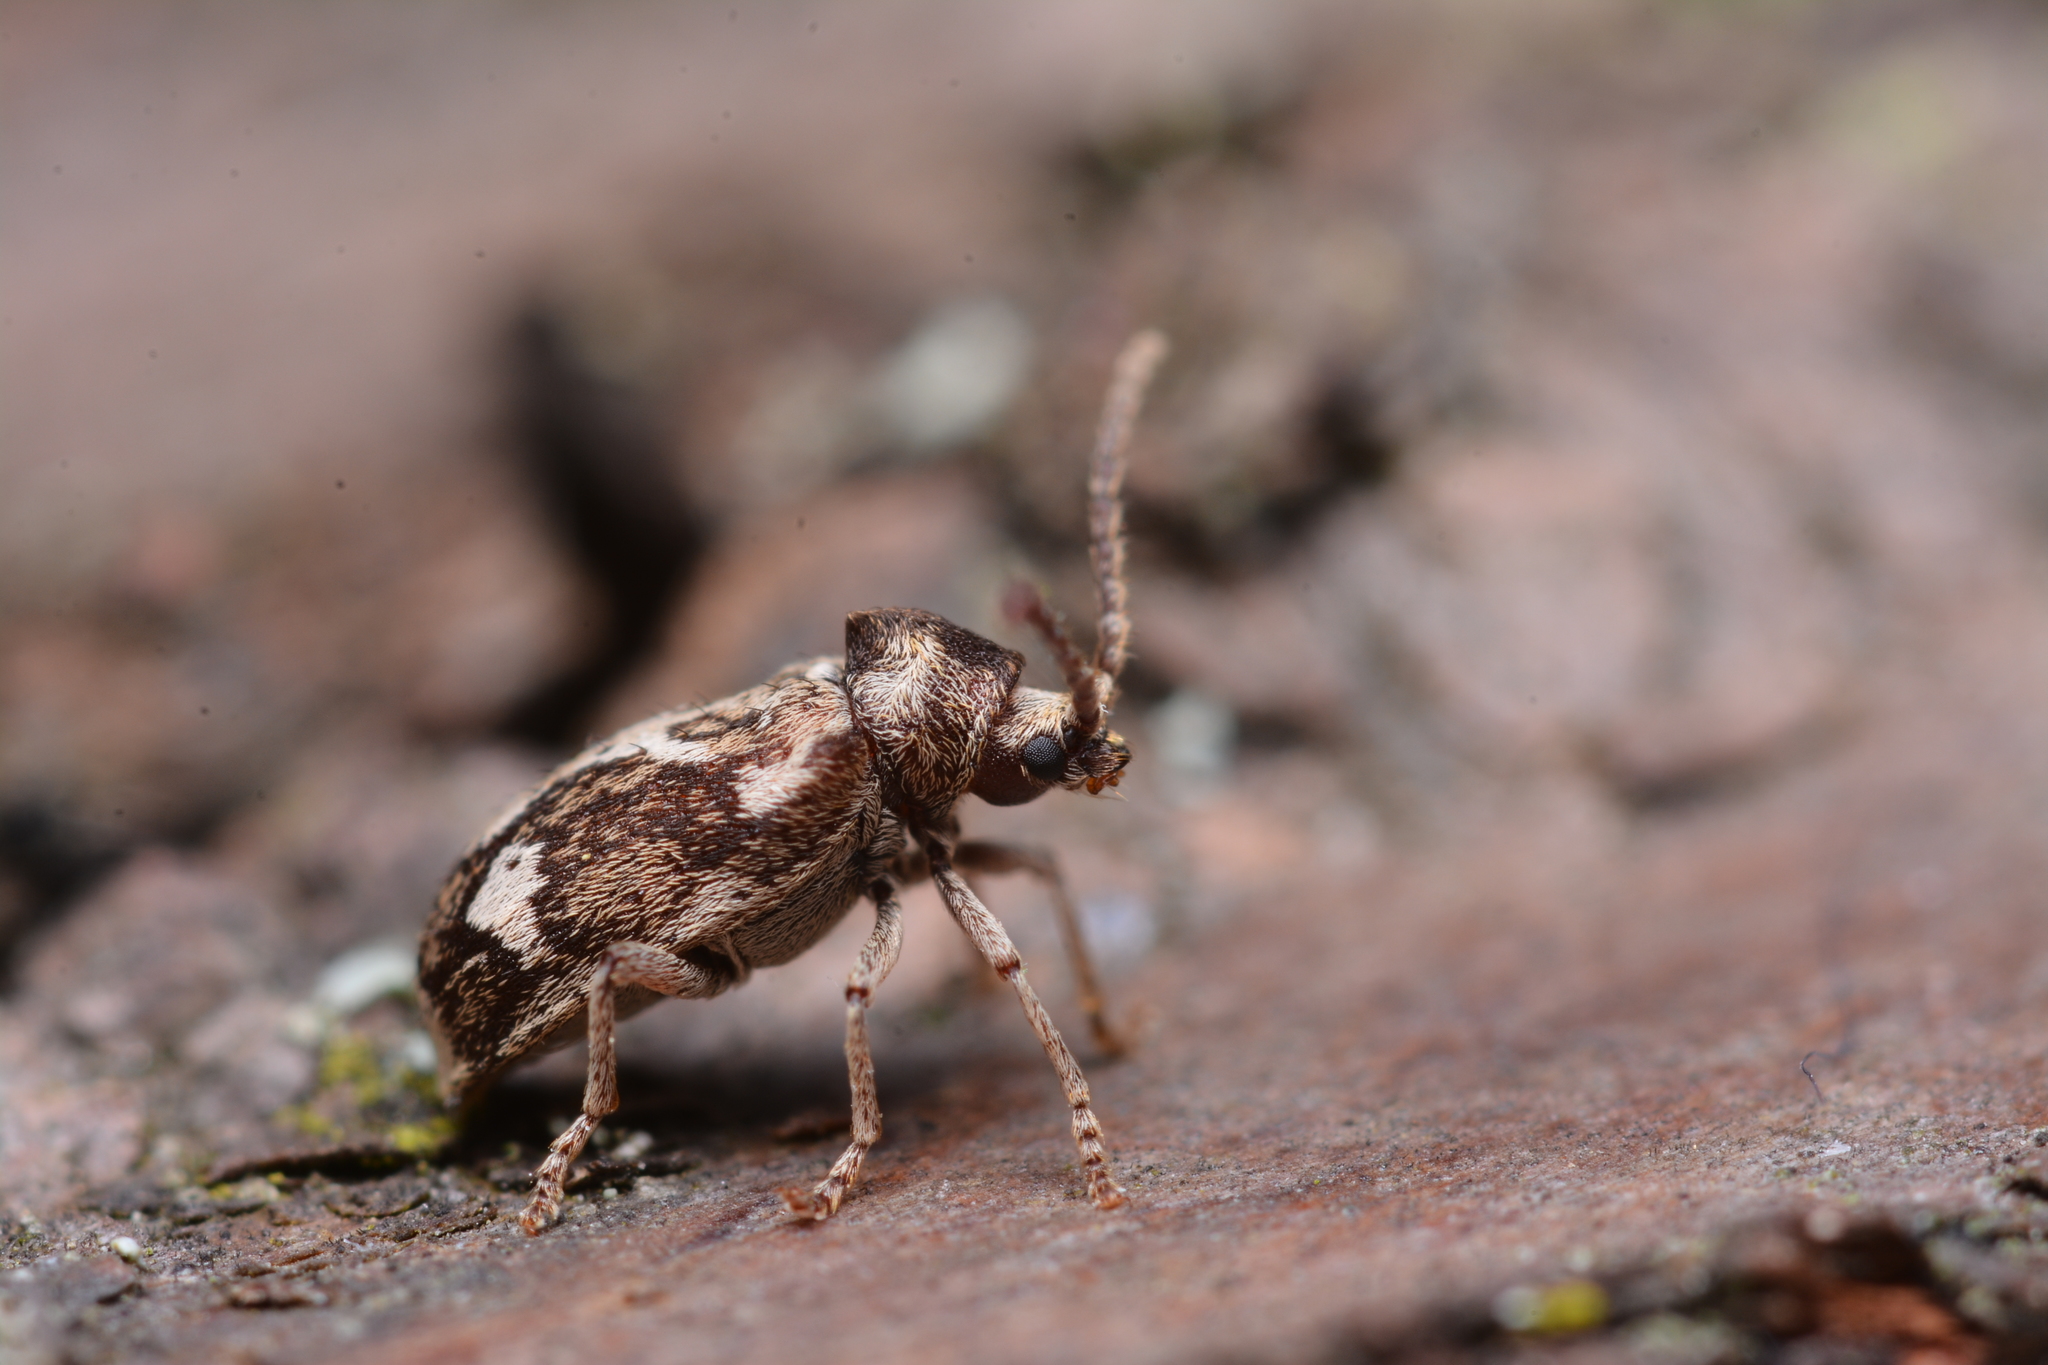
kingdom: Animalia
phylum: Arthropoda
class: Insecta
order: Coleoptera
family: Anobiidae
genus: Ptinomorphus
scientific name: Ptinomorphus imperialis
